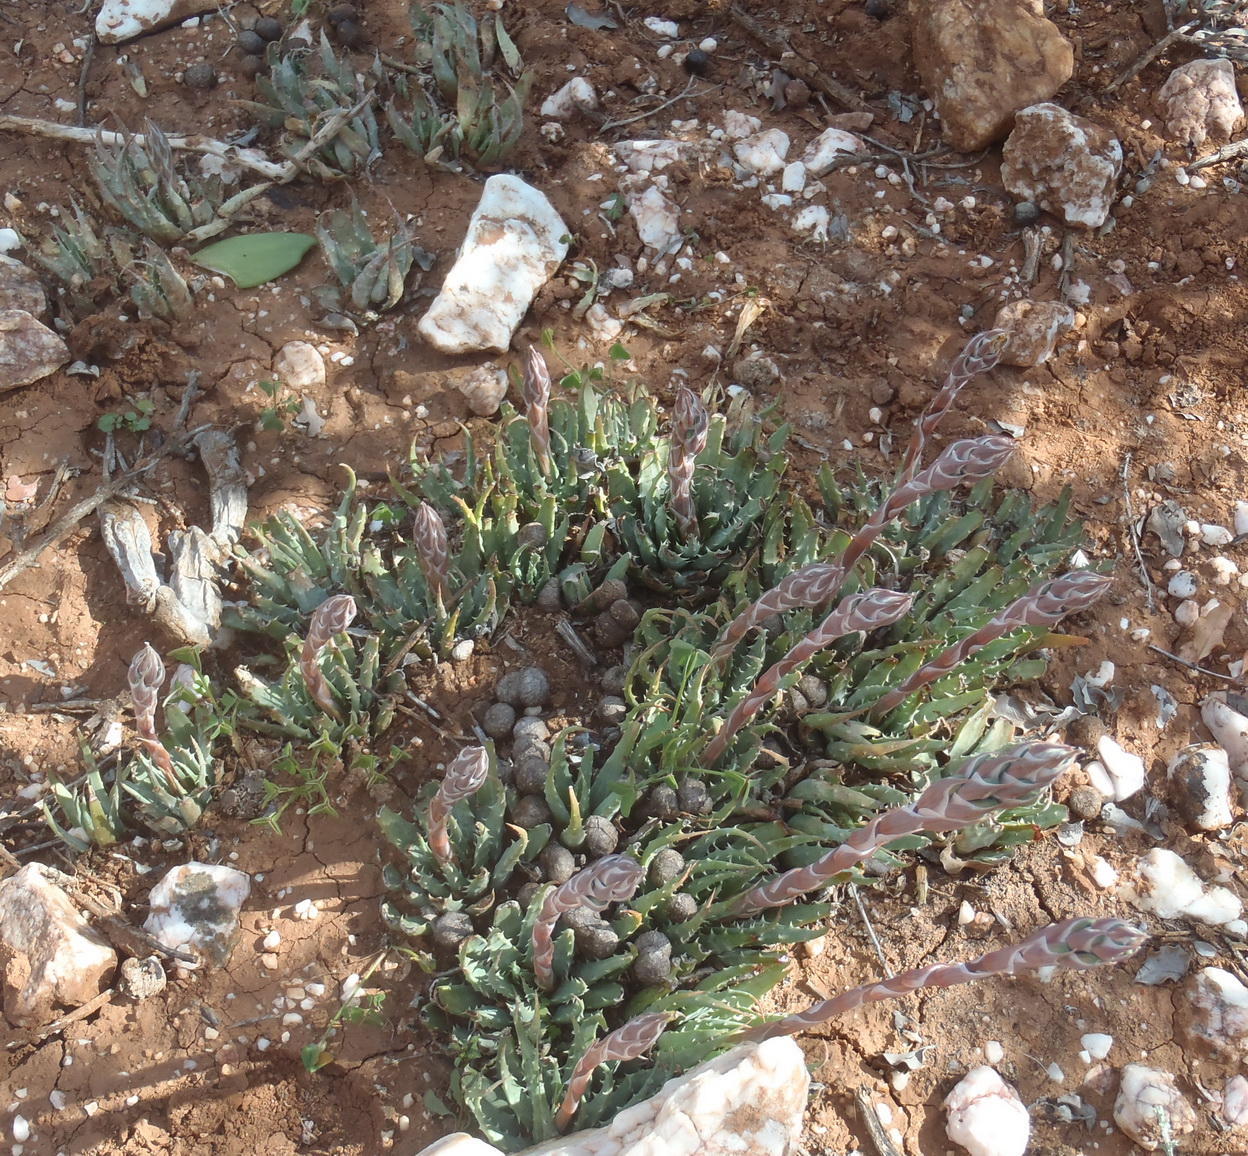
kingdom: Plantae
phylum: Tracheophyta
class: Liliopsida
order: Asparagales
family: Asphodelaceae
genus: Aloe
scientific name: Aloe humilis
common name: Dwarf hedgehog aloe
